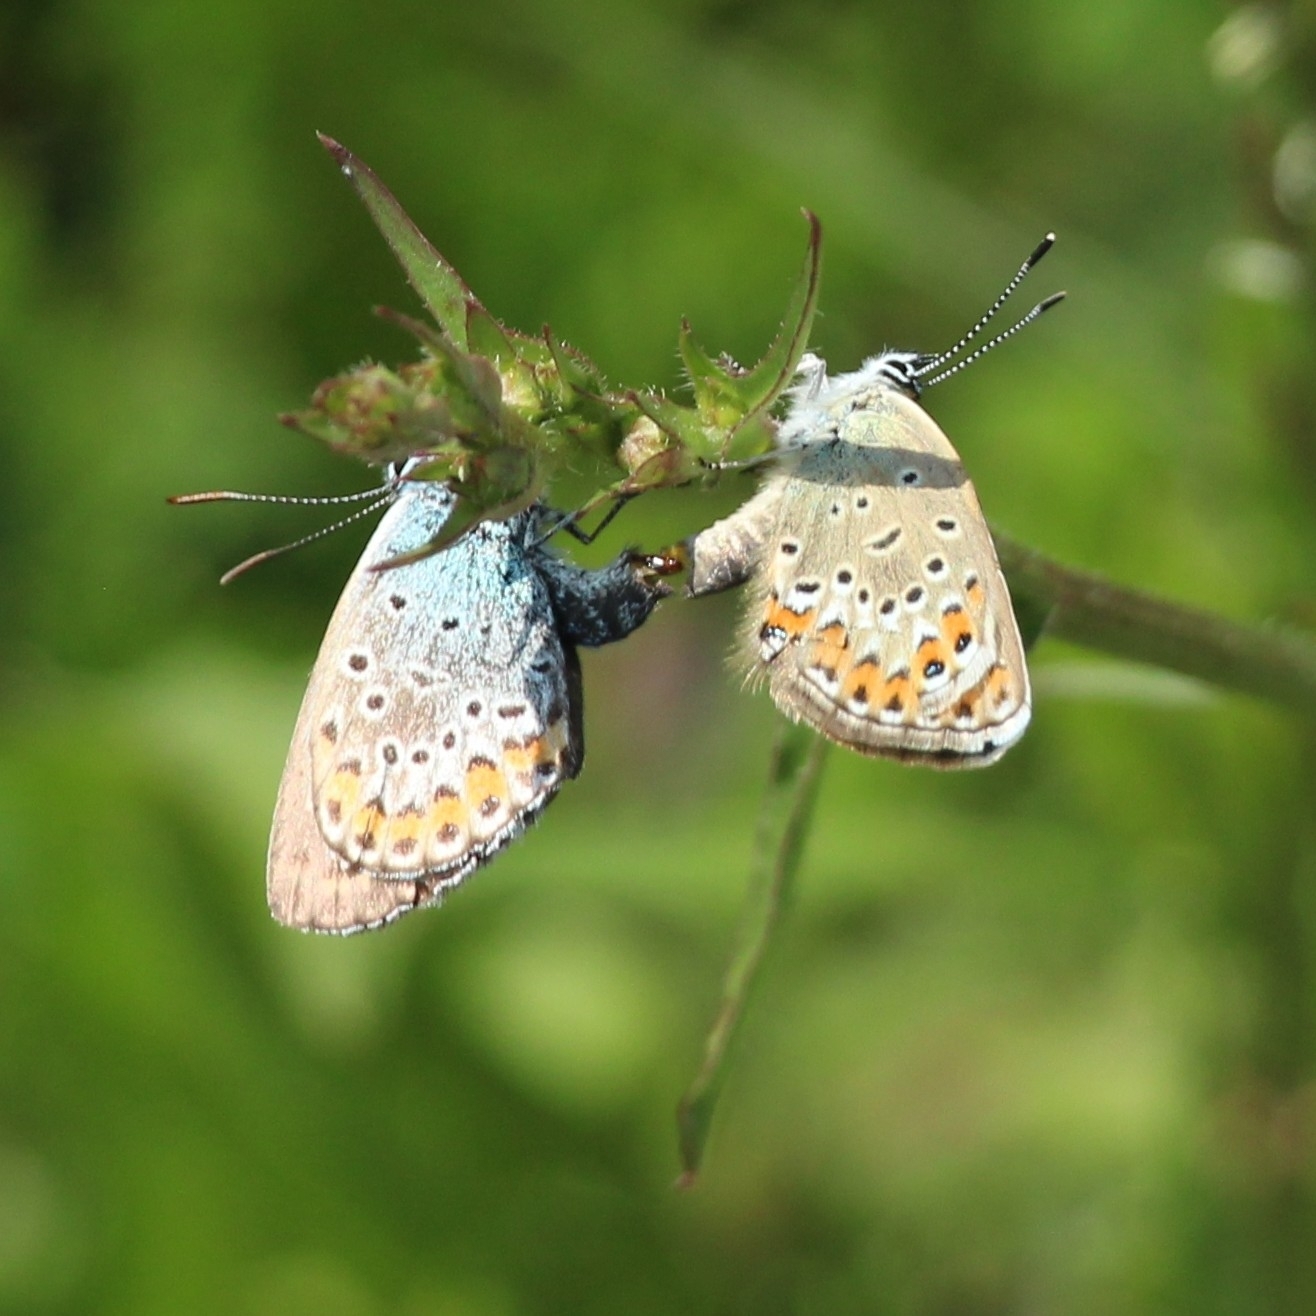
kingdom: Animalia
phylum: Arthropoda
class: Insecta
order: Lepidoptera
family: Lycaenidae
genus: Plebejus
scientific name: Plebejus argus
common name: Silver-studded blue
